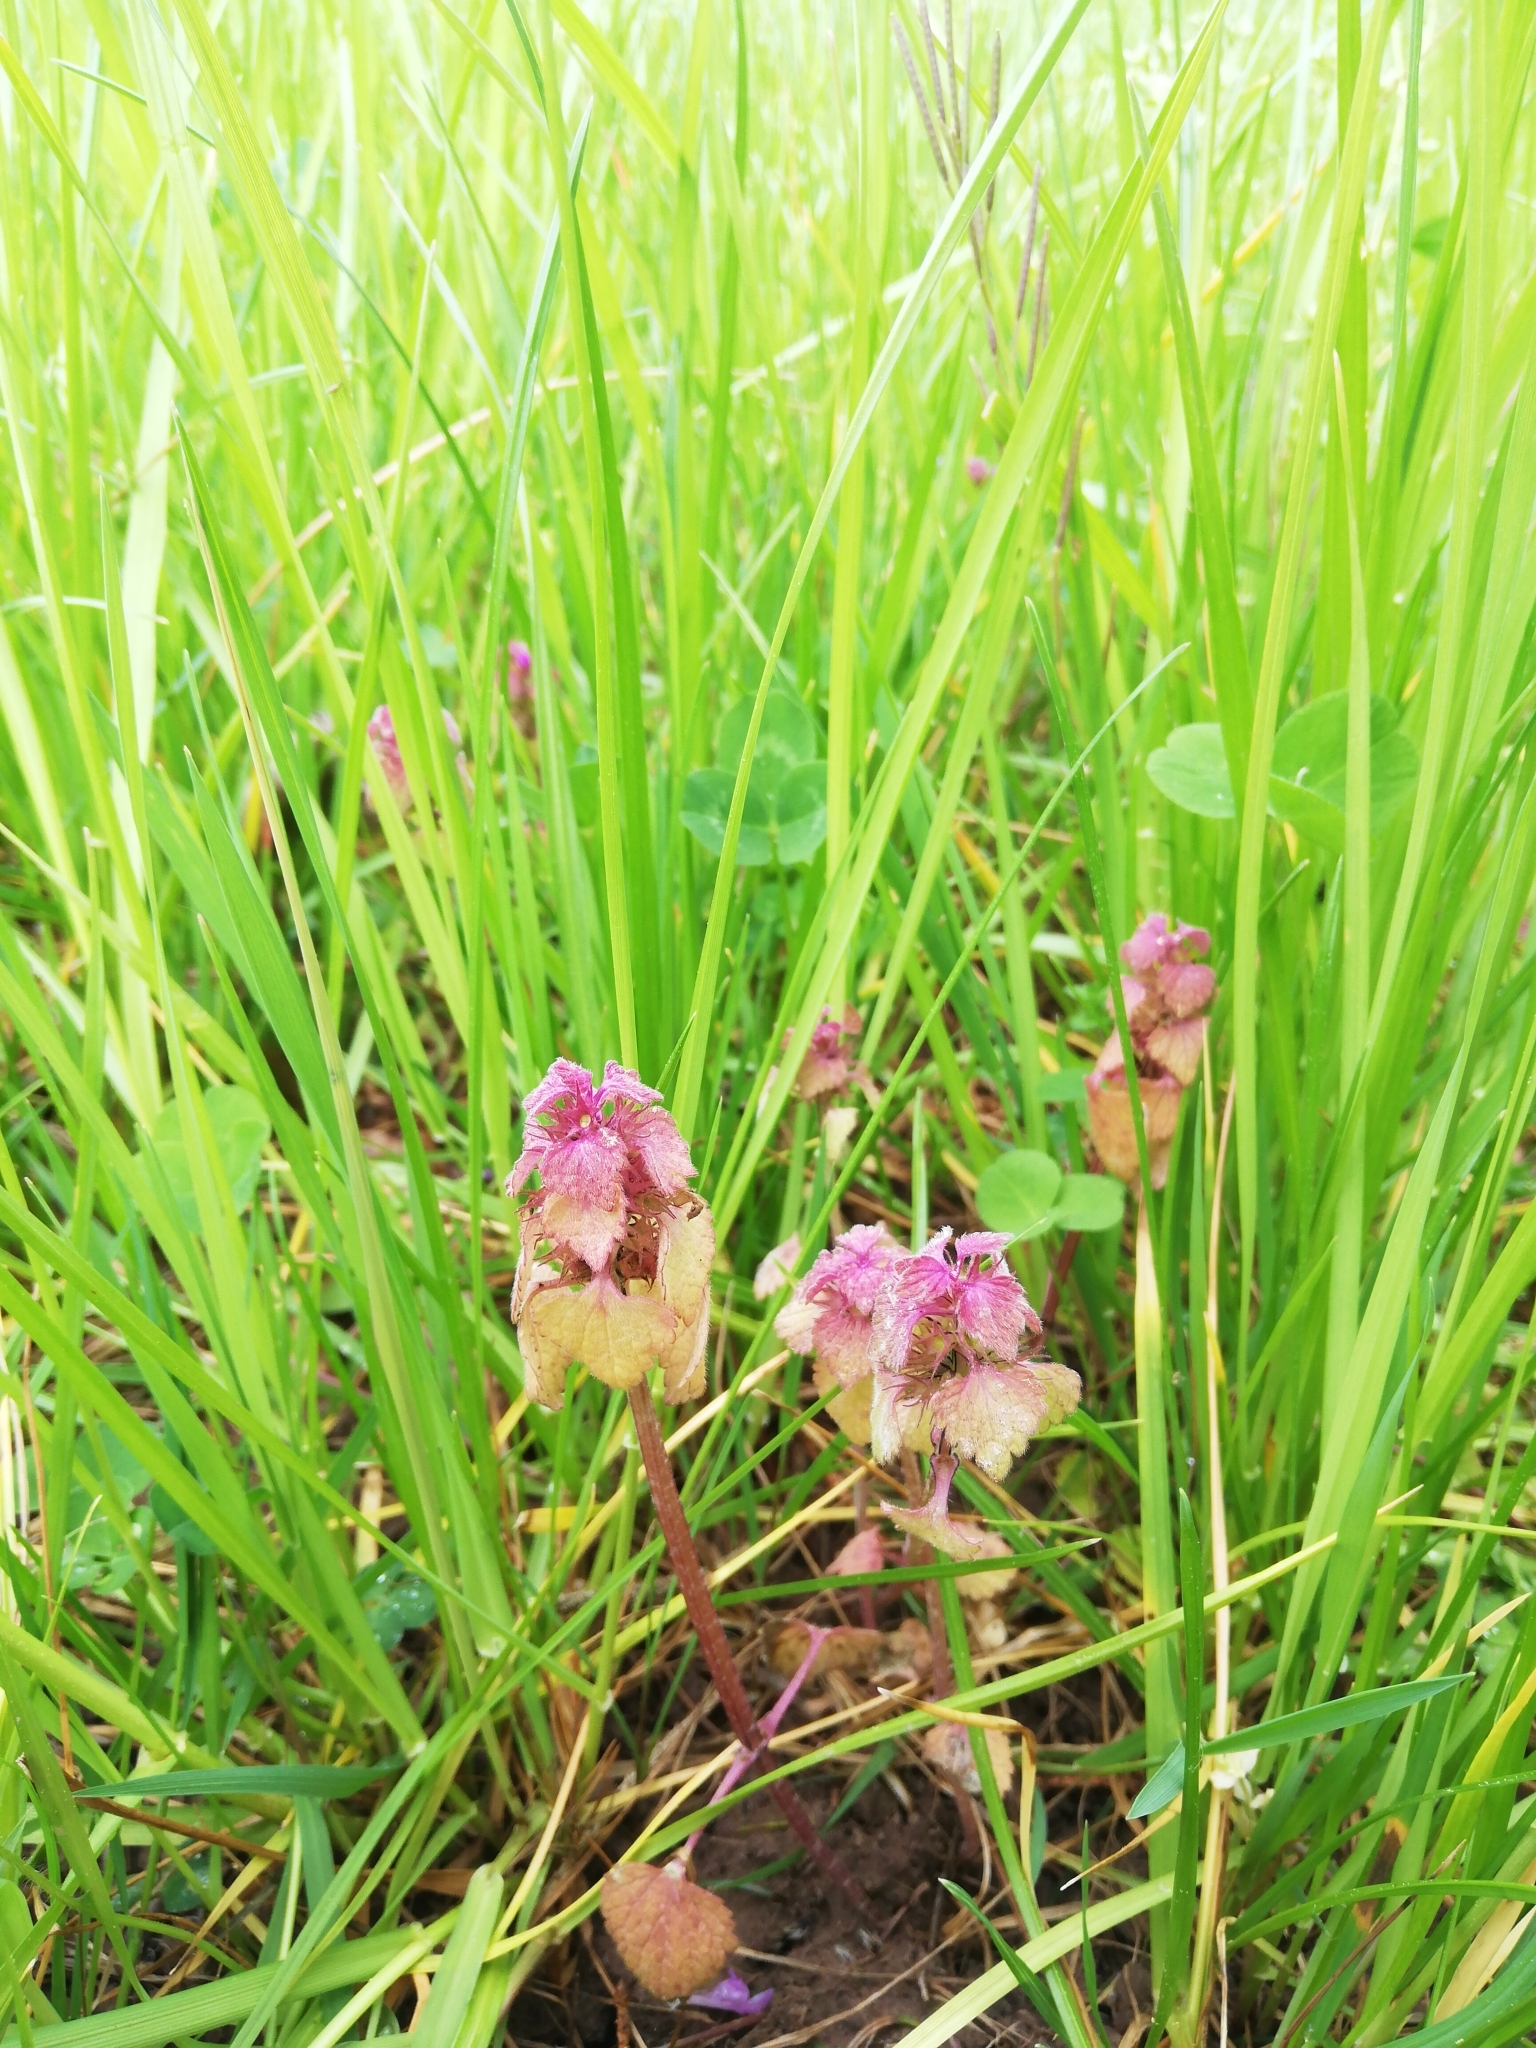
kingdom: Plantae
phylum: Tracheophyta
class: Magnoliopsida
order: Lamiales
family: Lamiaceae
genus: Lamium
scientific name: Lamium purpureum
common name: Red dead-nettle
